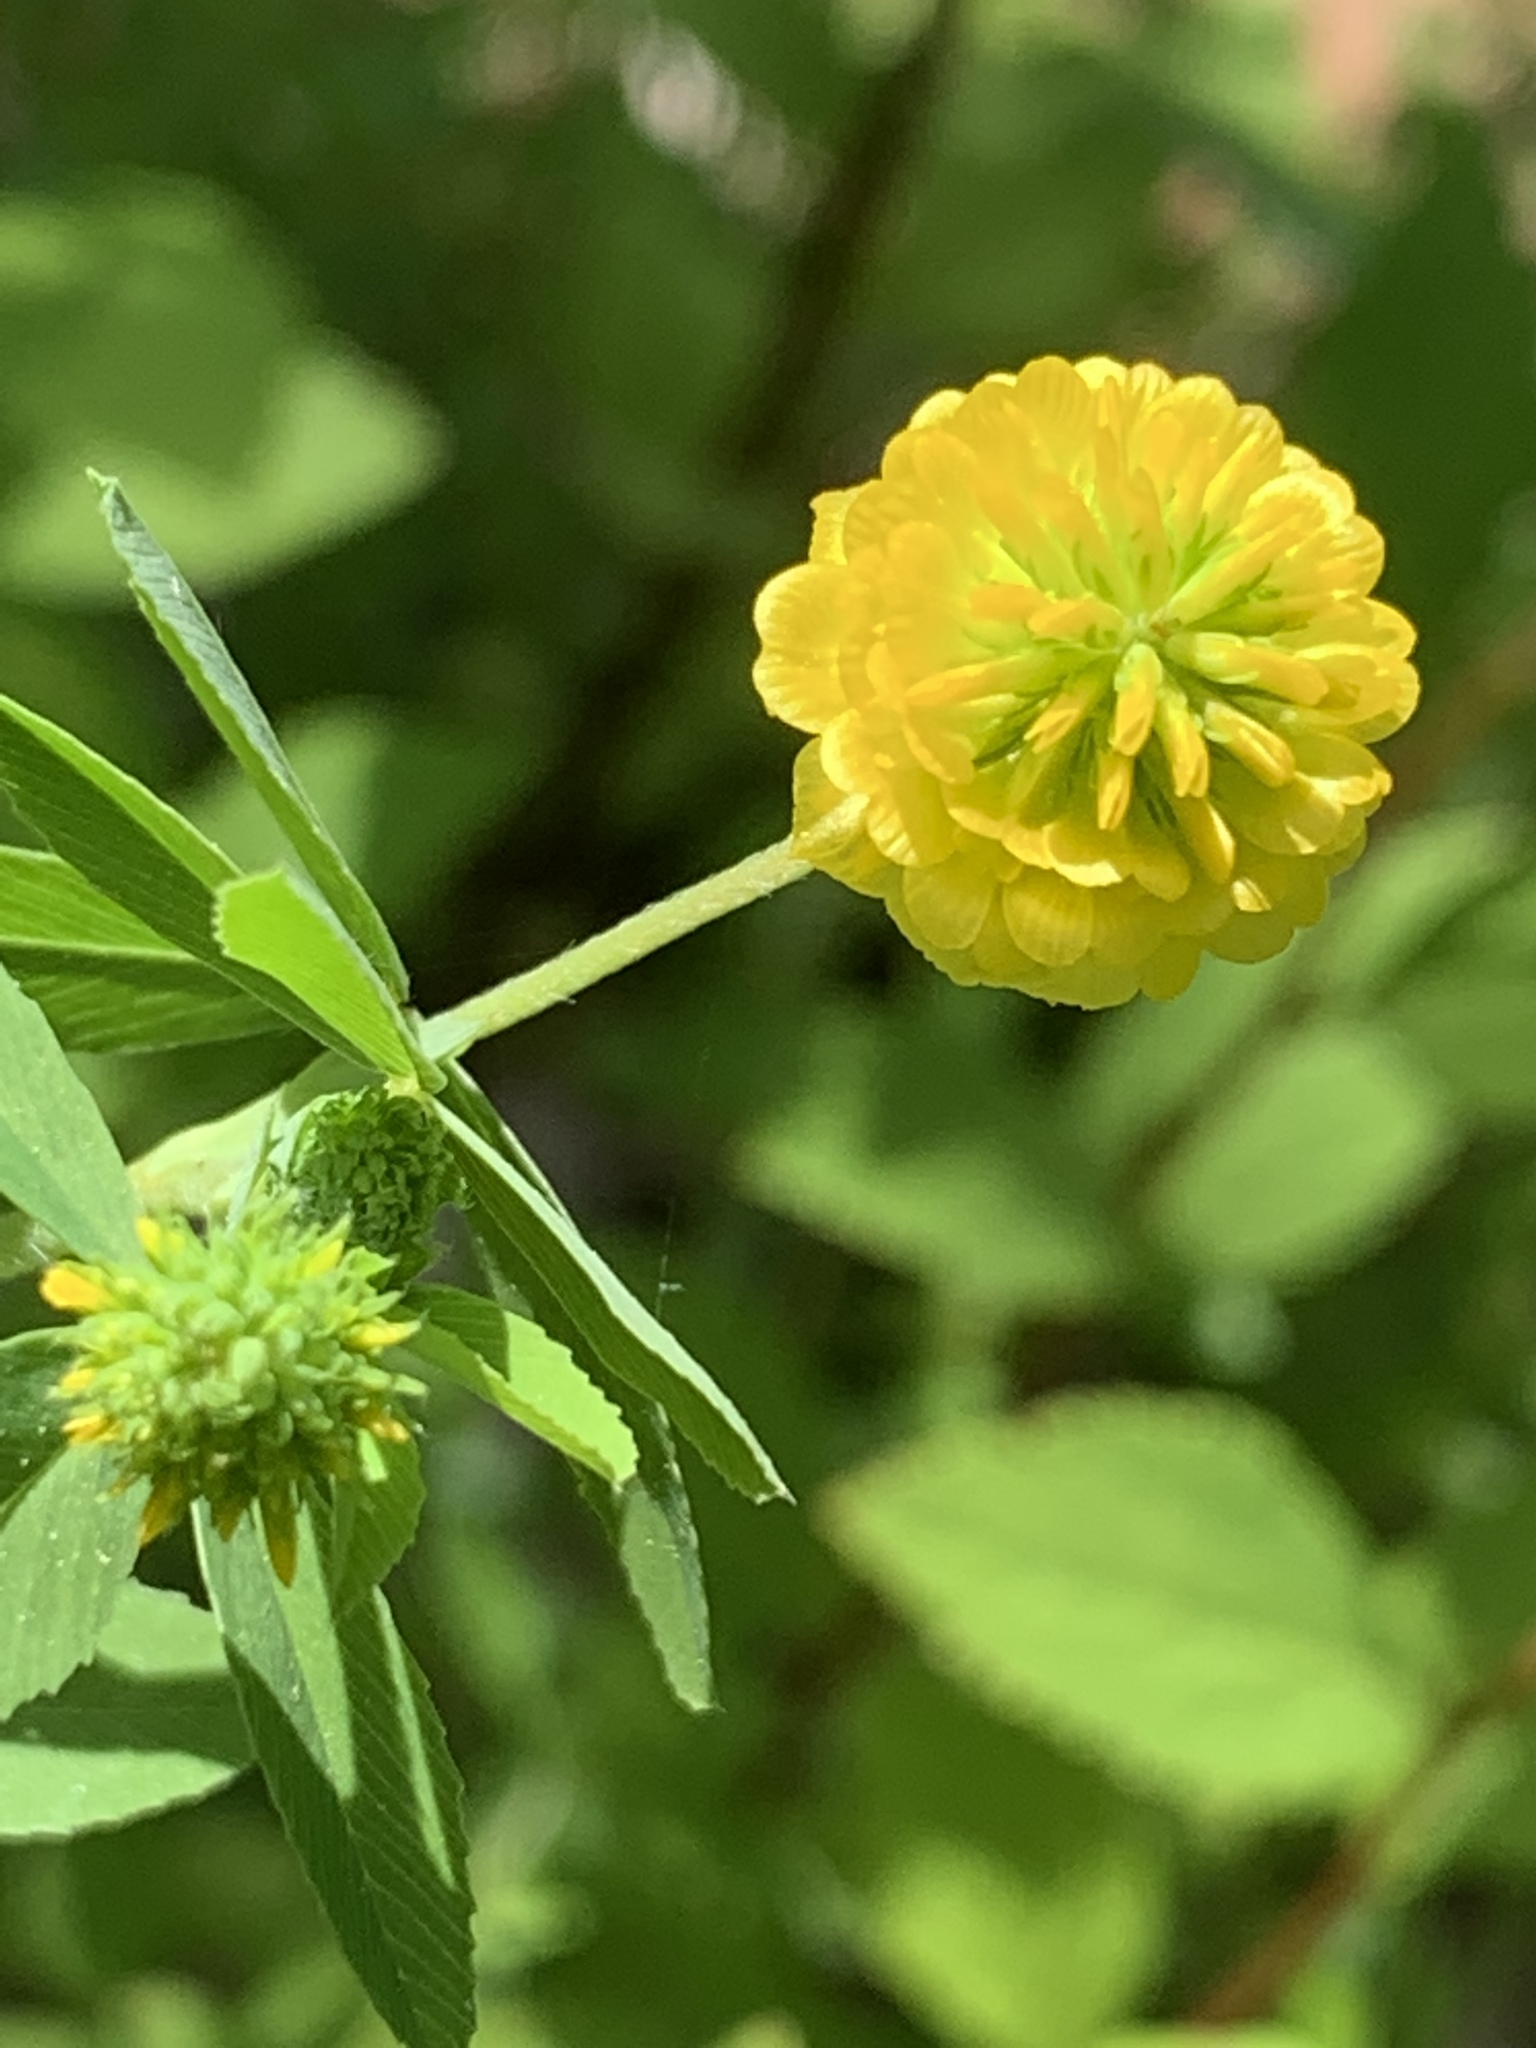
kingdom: Plantae
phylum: Tracheophyta
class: Magnoliopsida
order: Fabales
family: Fabaceae
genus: Trifolium
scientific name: Trifolium aureum
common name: Golden clover
